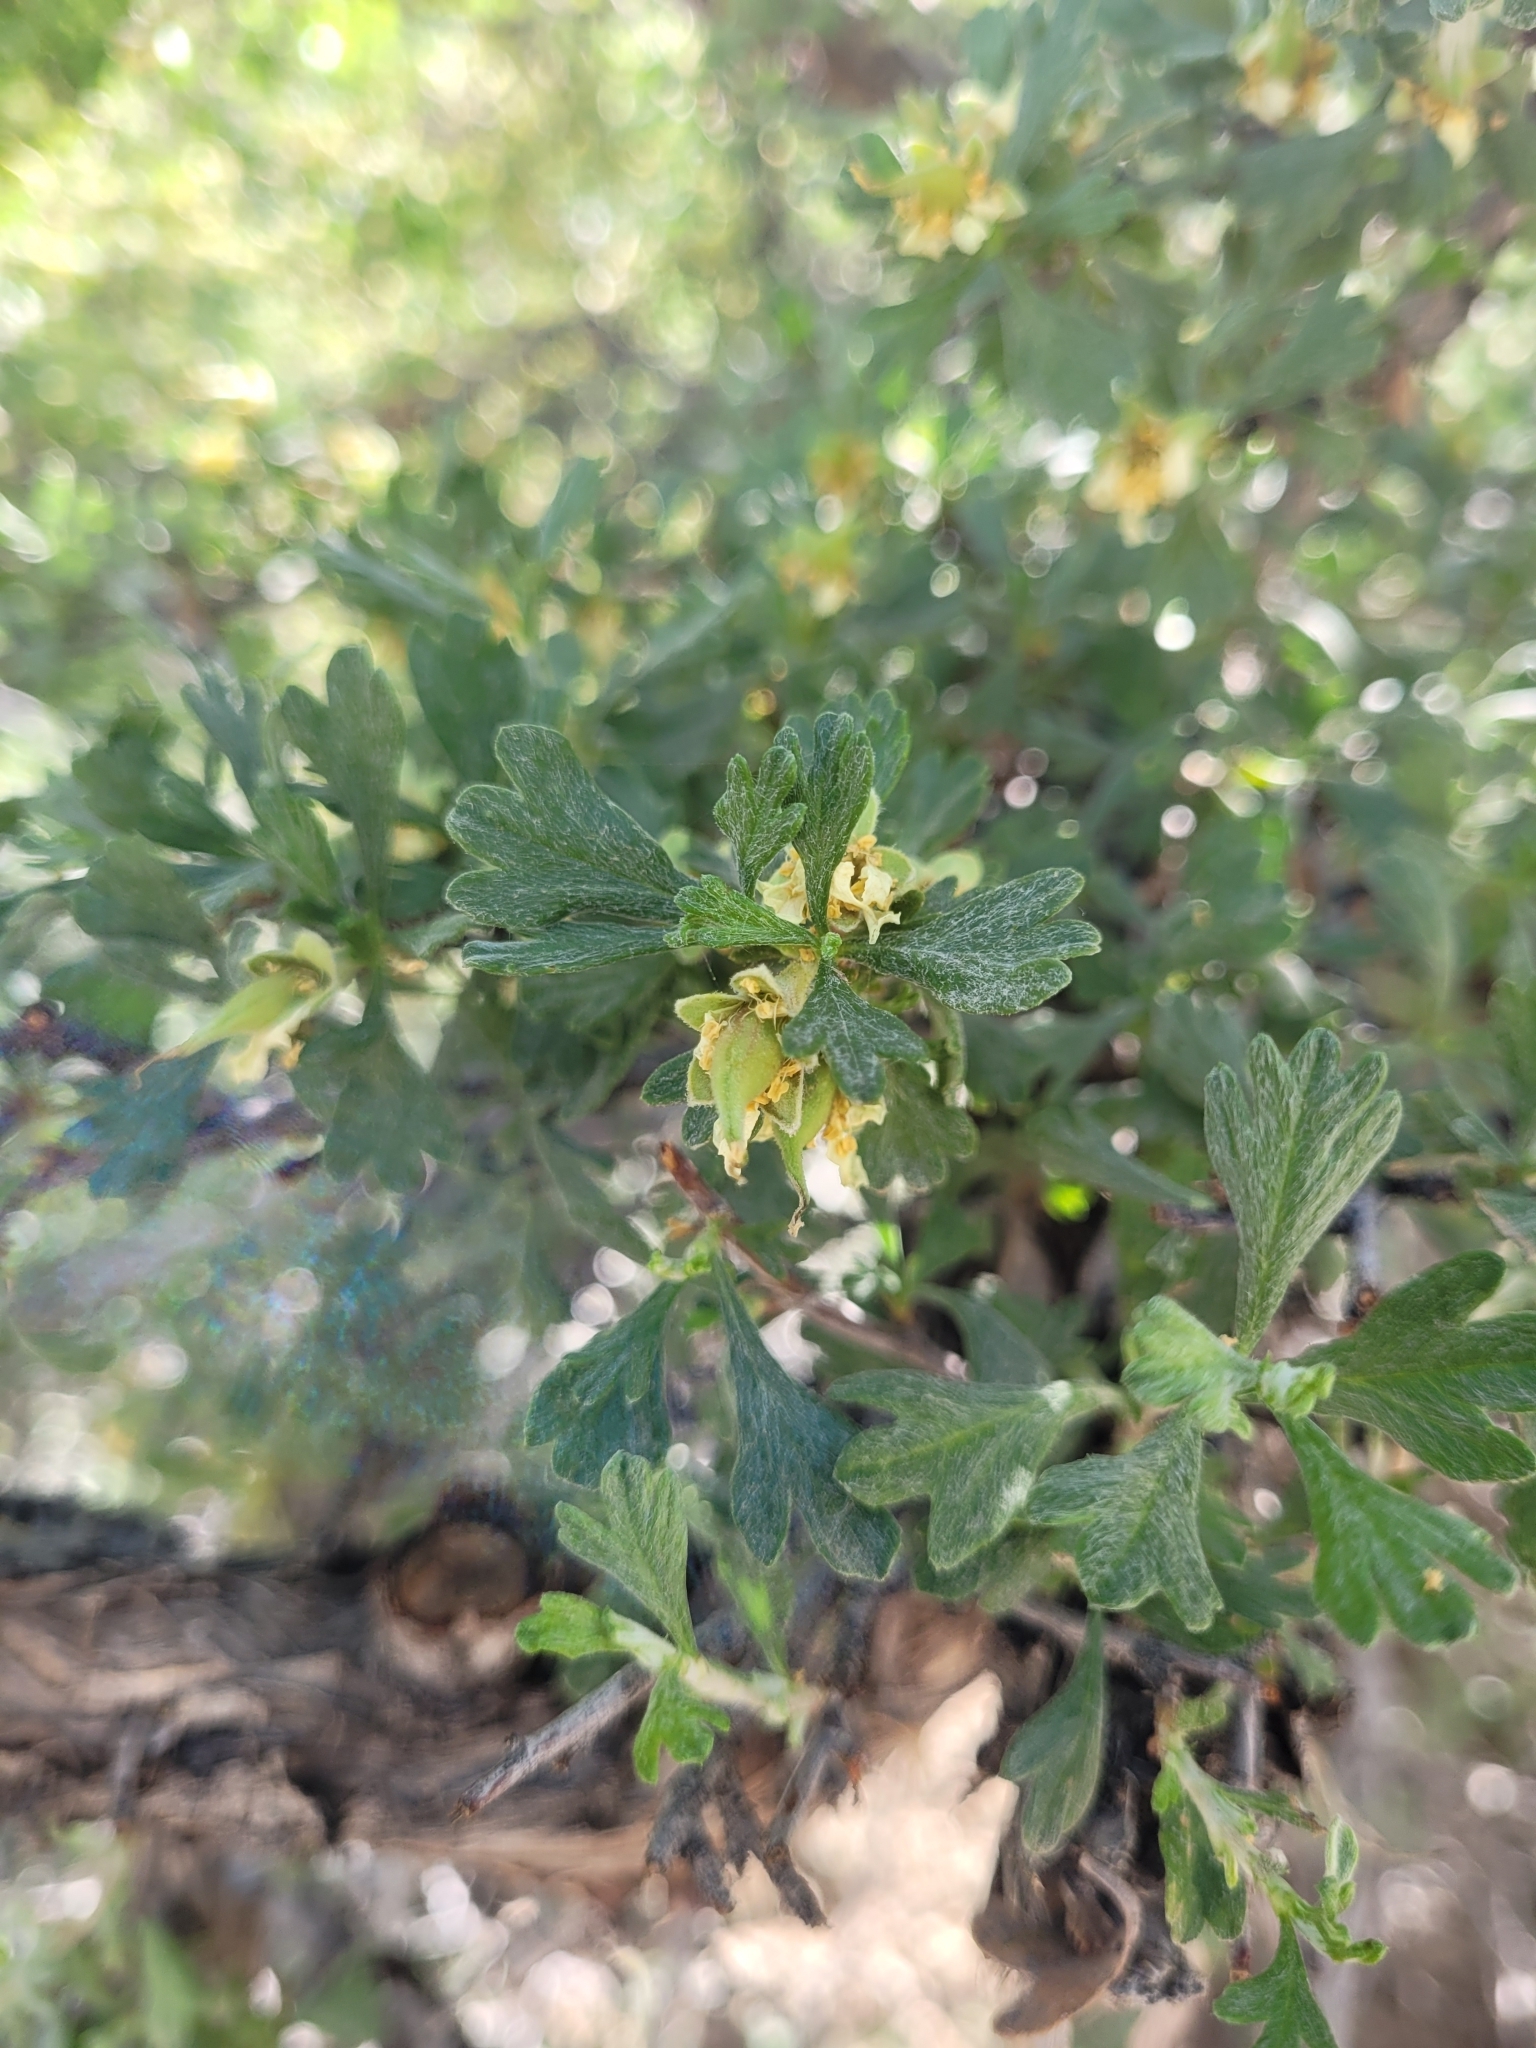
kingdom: Plantae
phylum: Tracheophyta
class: Magnoliopsida
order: Rosales
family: Rosaceae
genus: Purshia
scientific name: Purshia tridentata
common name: Antelope bitterbrush
